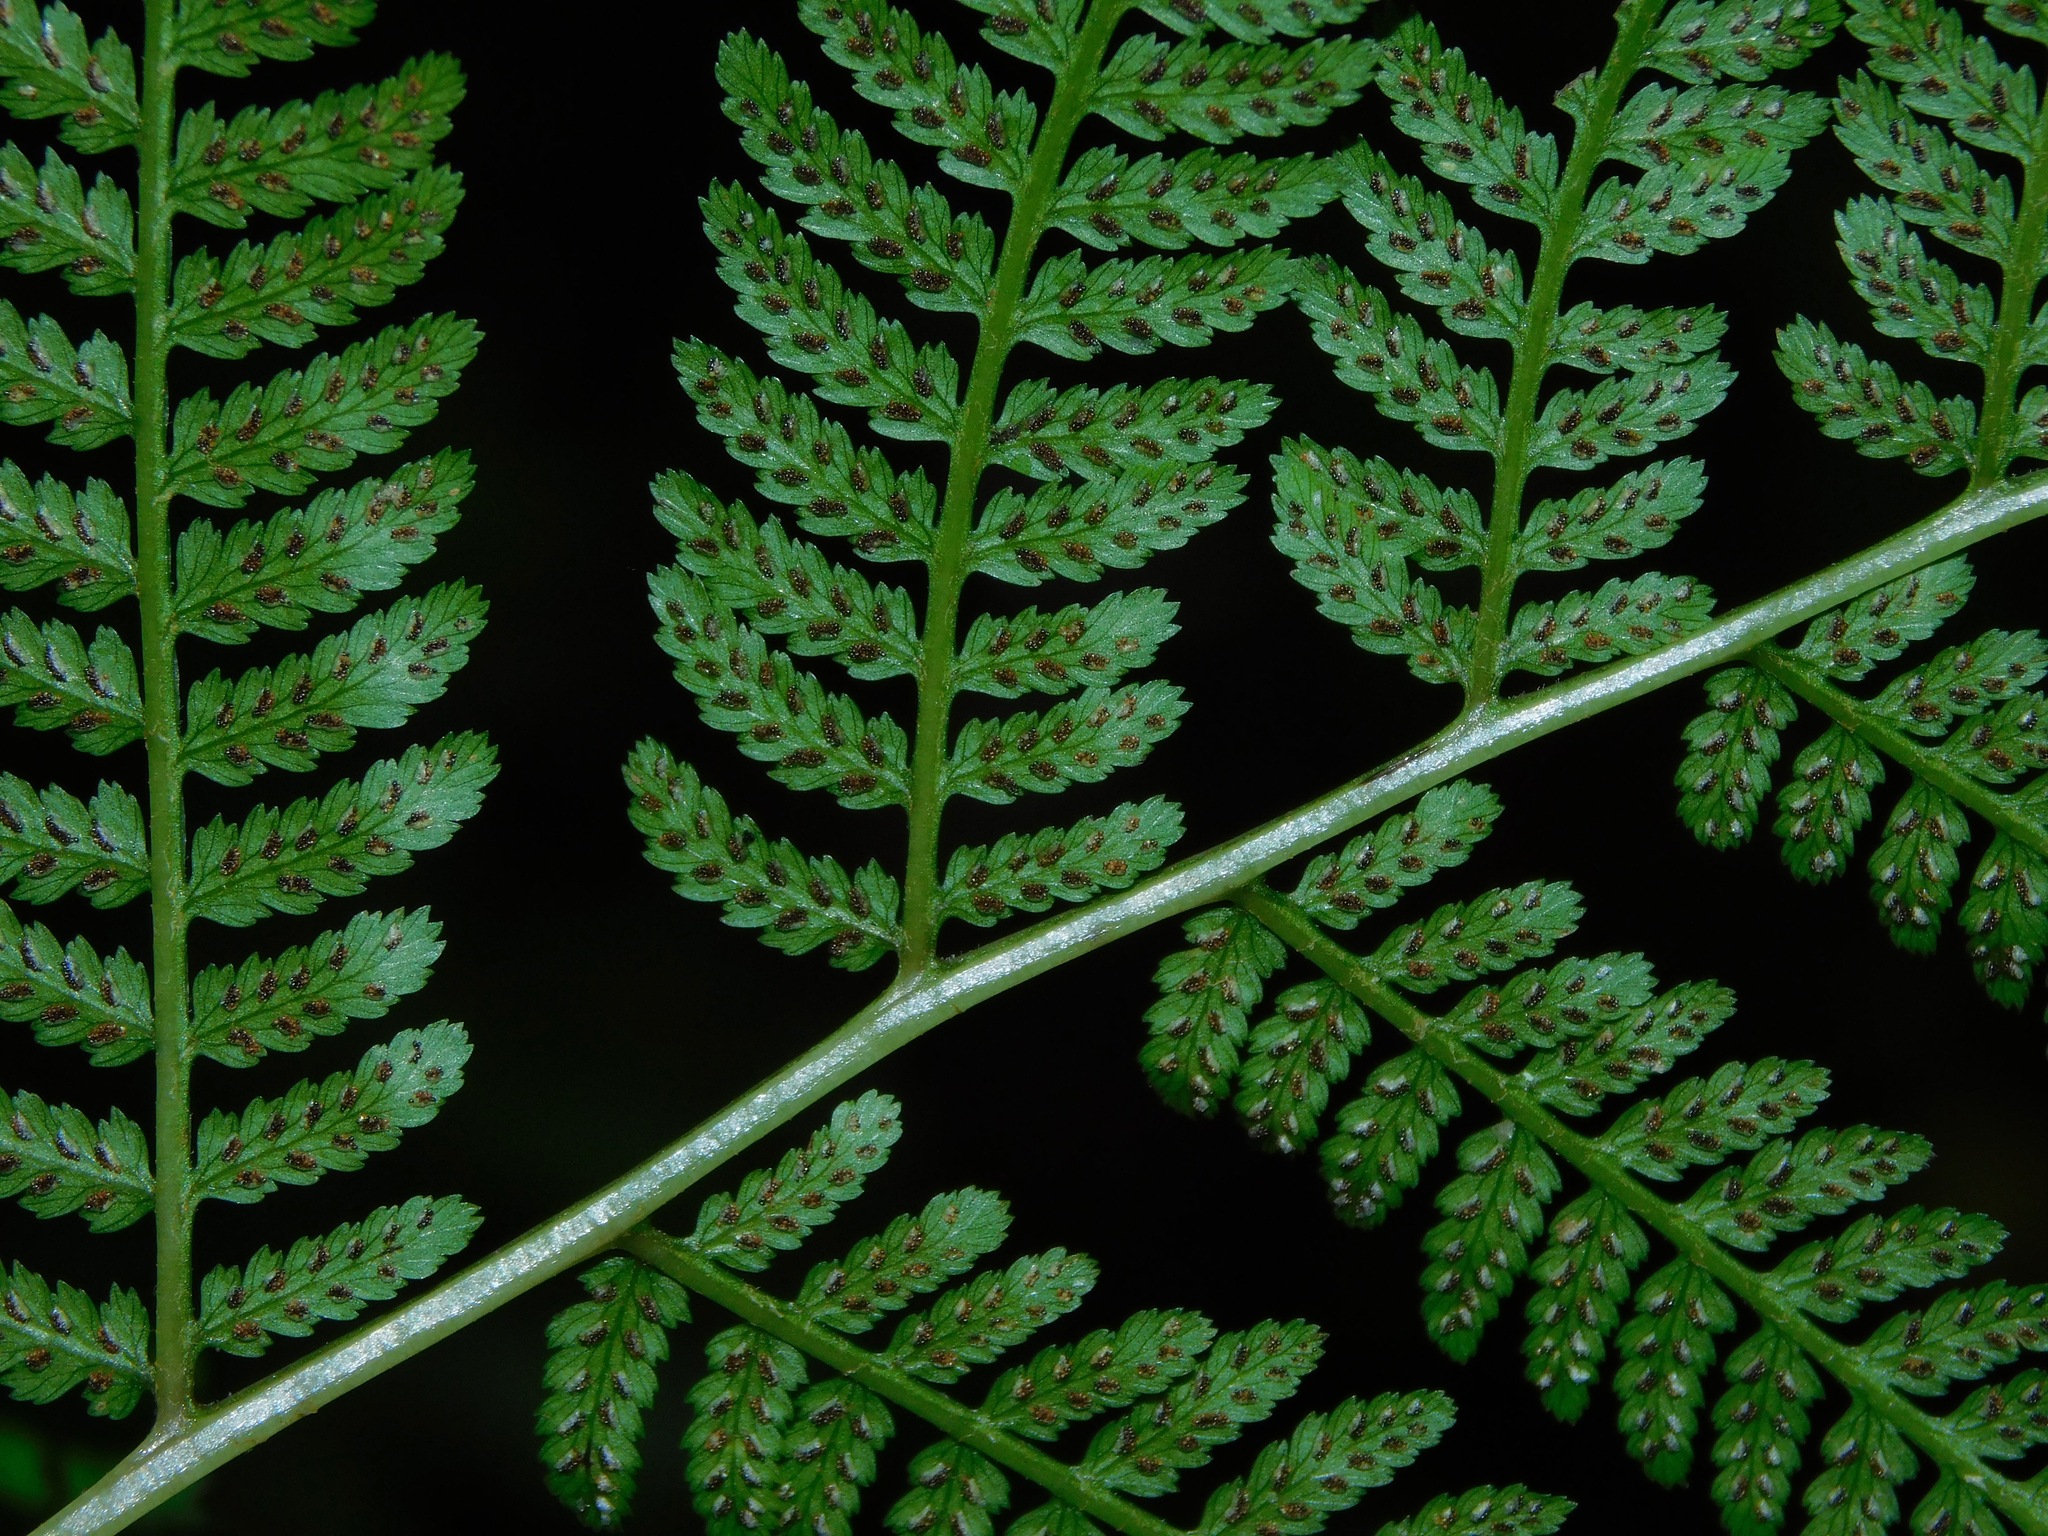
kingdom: Plantae
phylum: Tracheophyta
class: Polypodiopsida
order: Polypodiales
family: Athyriaceae
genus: Athyrium
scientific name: Athyrium asplenioides
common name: Southern lady fern
